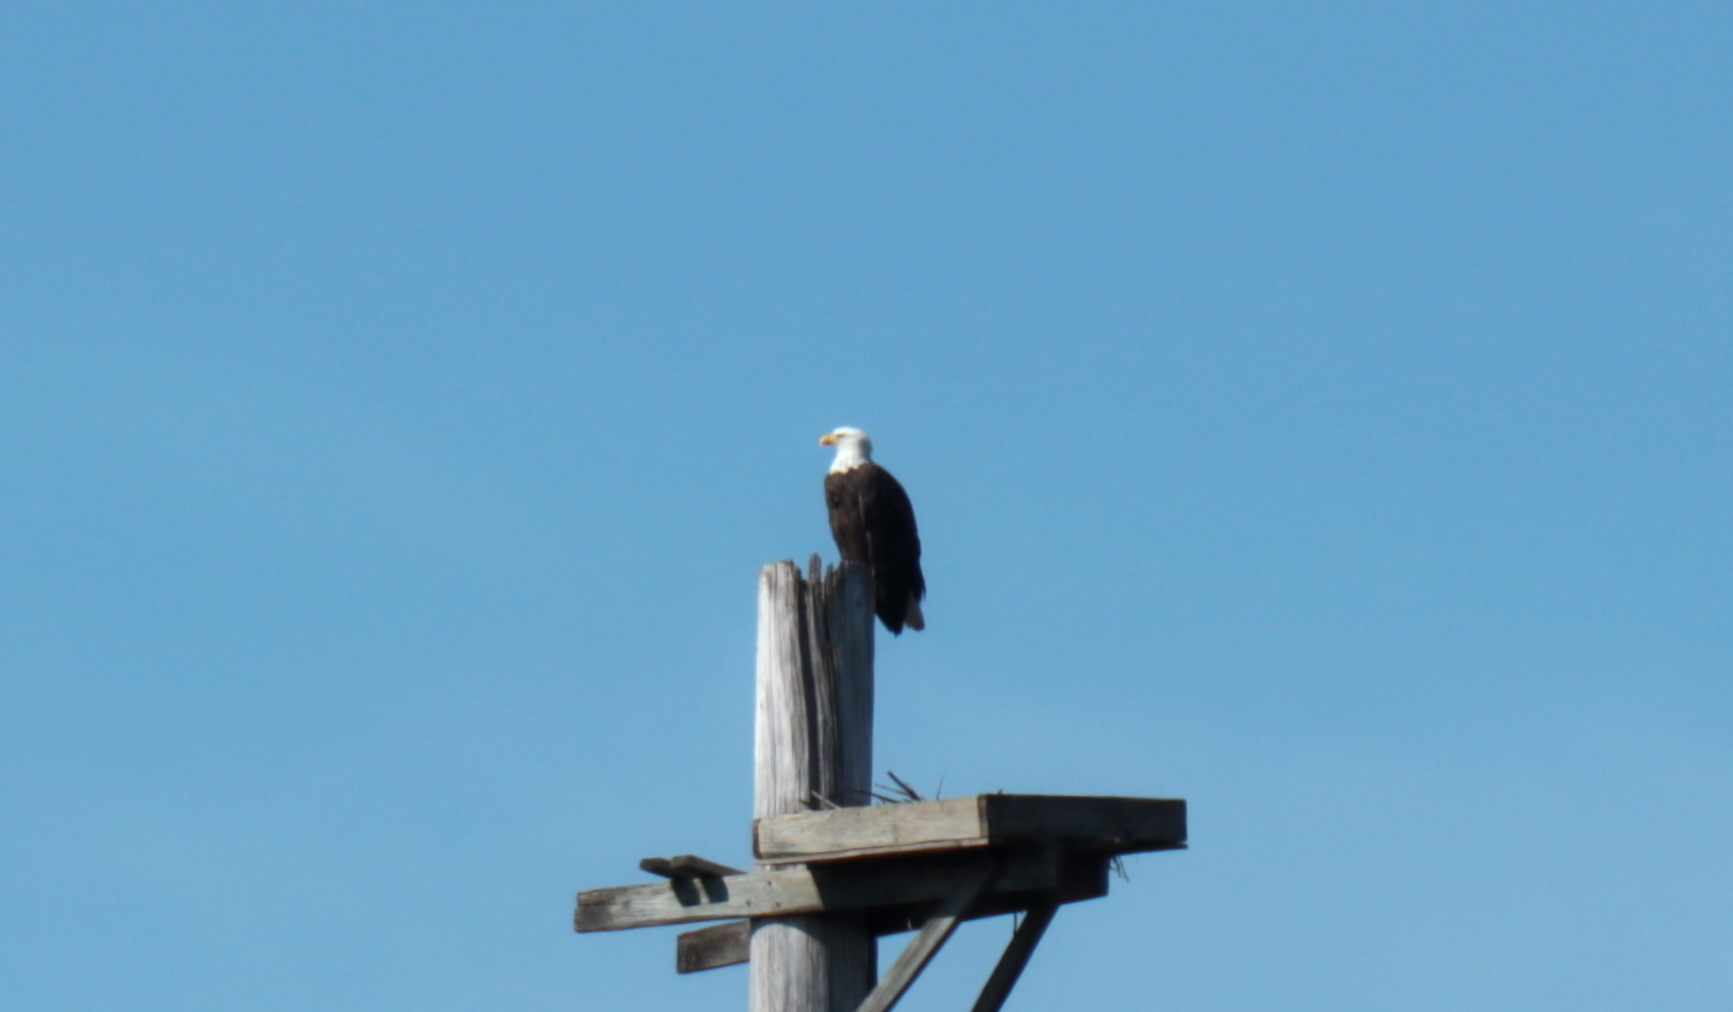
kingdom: Animalia
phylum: Chordata
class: Aves
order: Accipitriformes
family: Accipitridae
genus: Haliaeetus
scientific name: Haliaeetus leucocephalus
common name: Bald eagle
